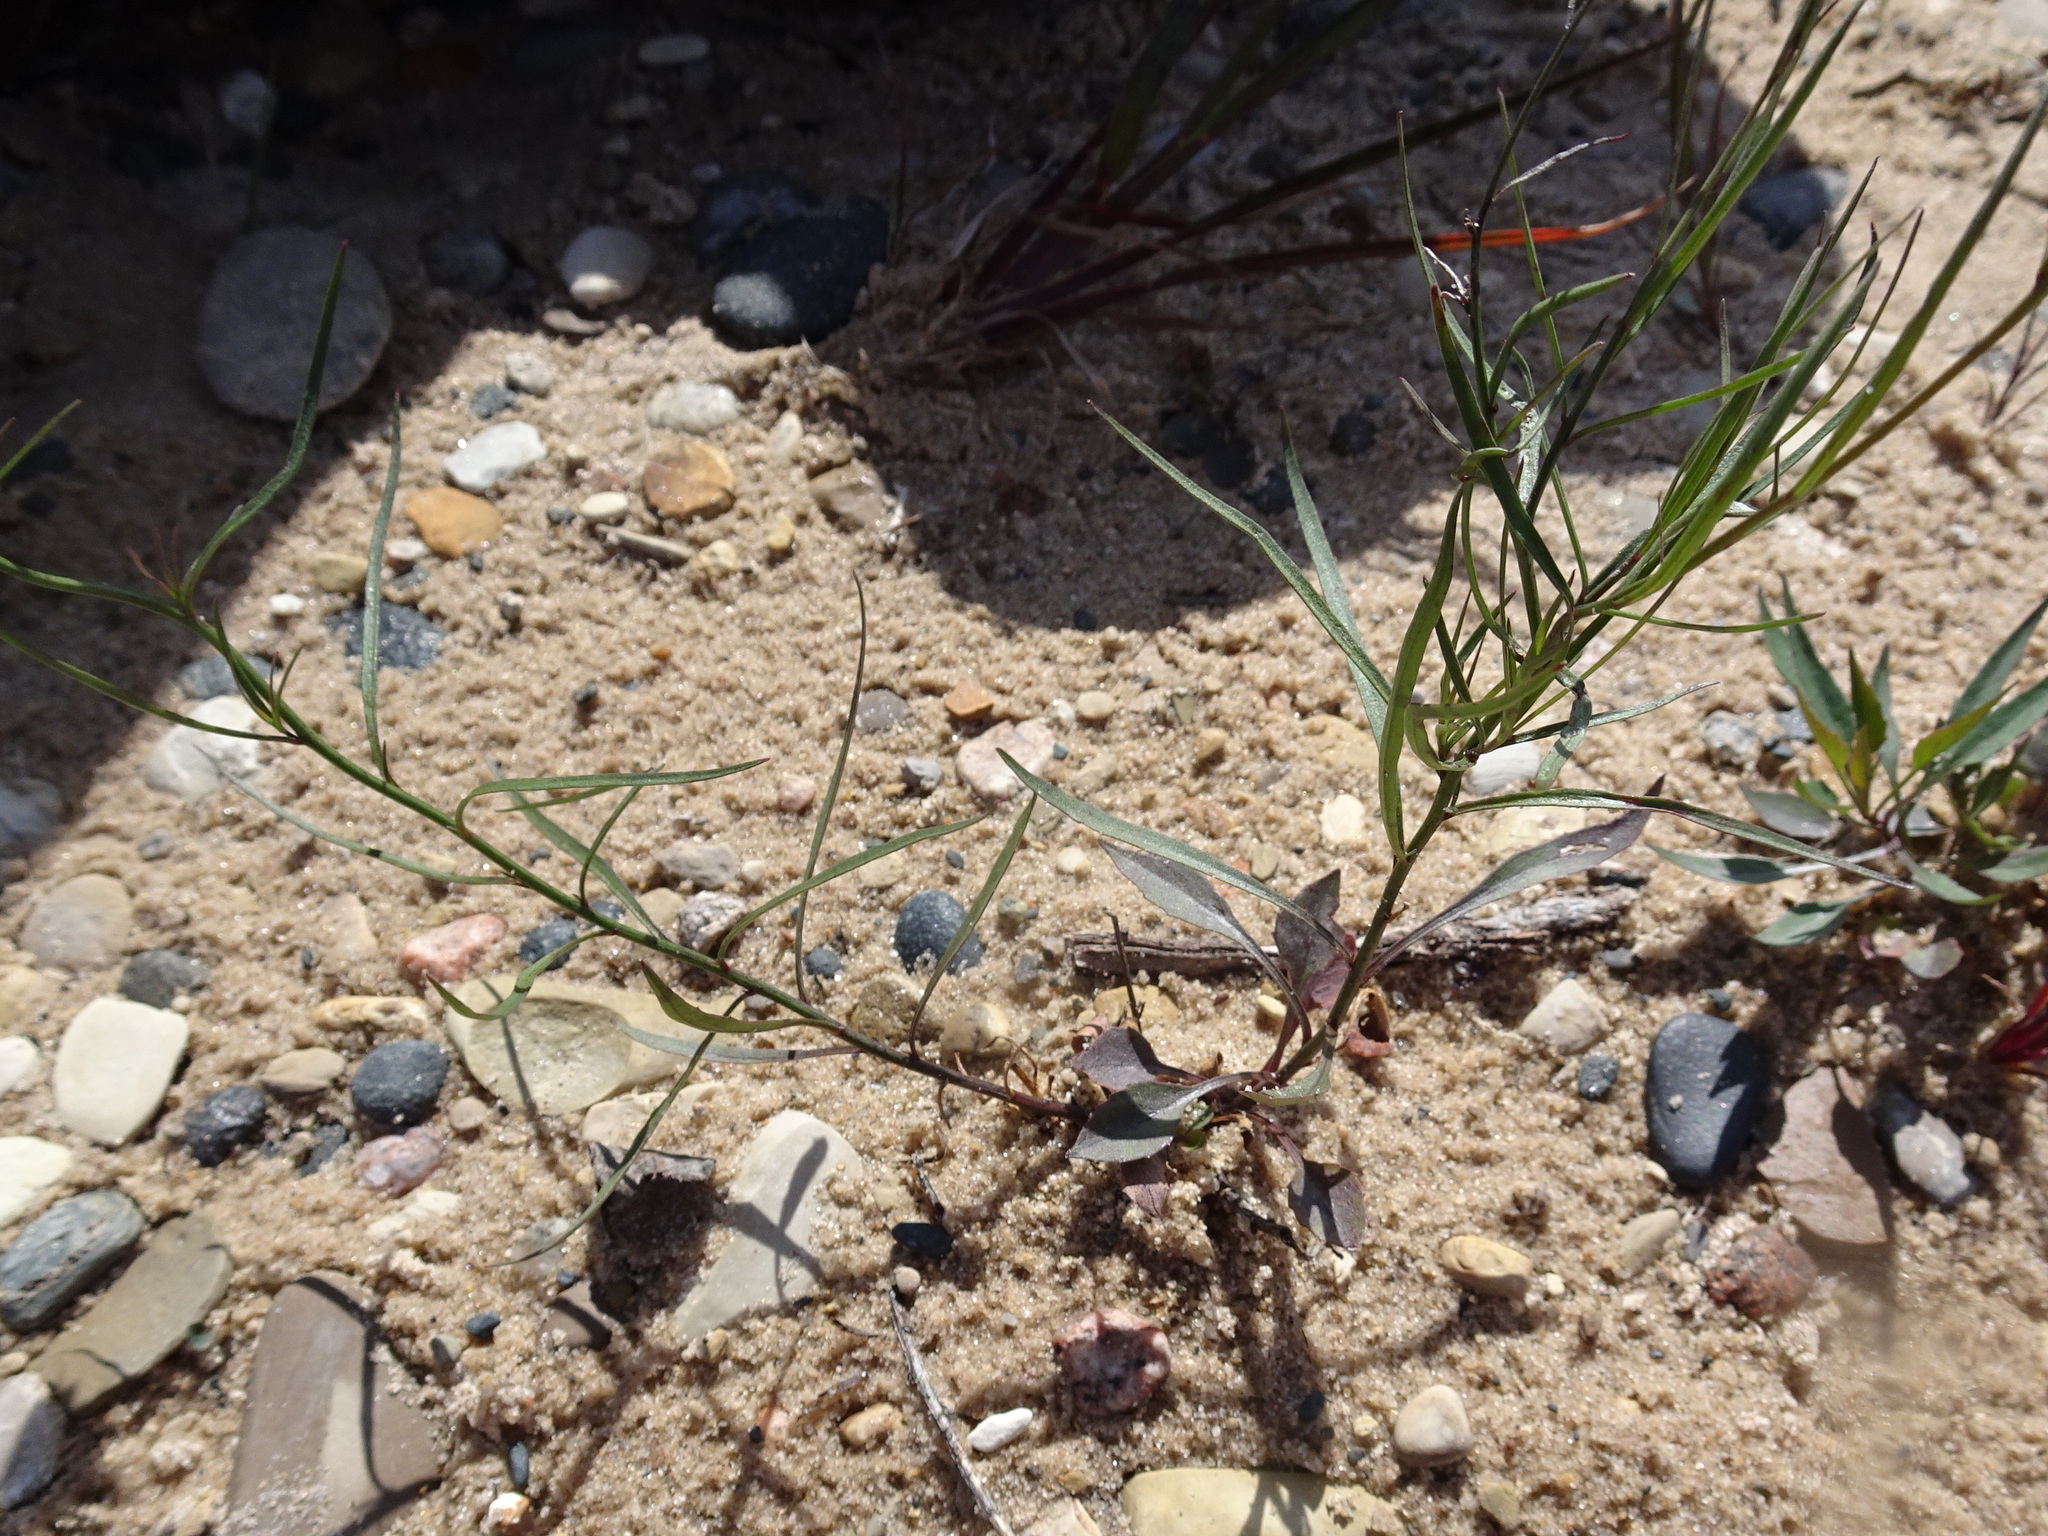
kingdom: Plantae
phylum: Tracheophyta
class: Magnoliopsida
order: Asterales
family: Campanulaceae
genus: Campanula
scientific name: Campanula intercedens
